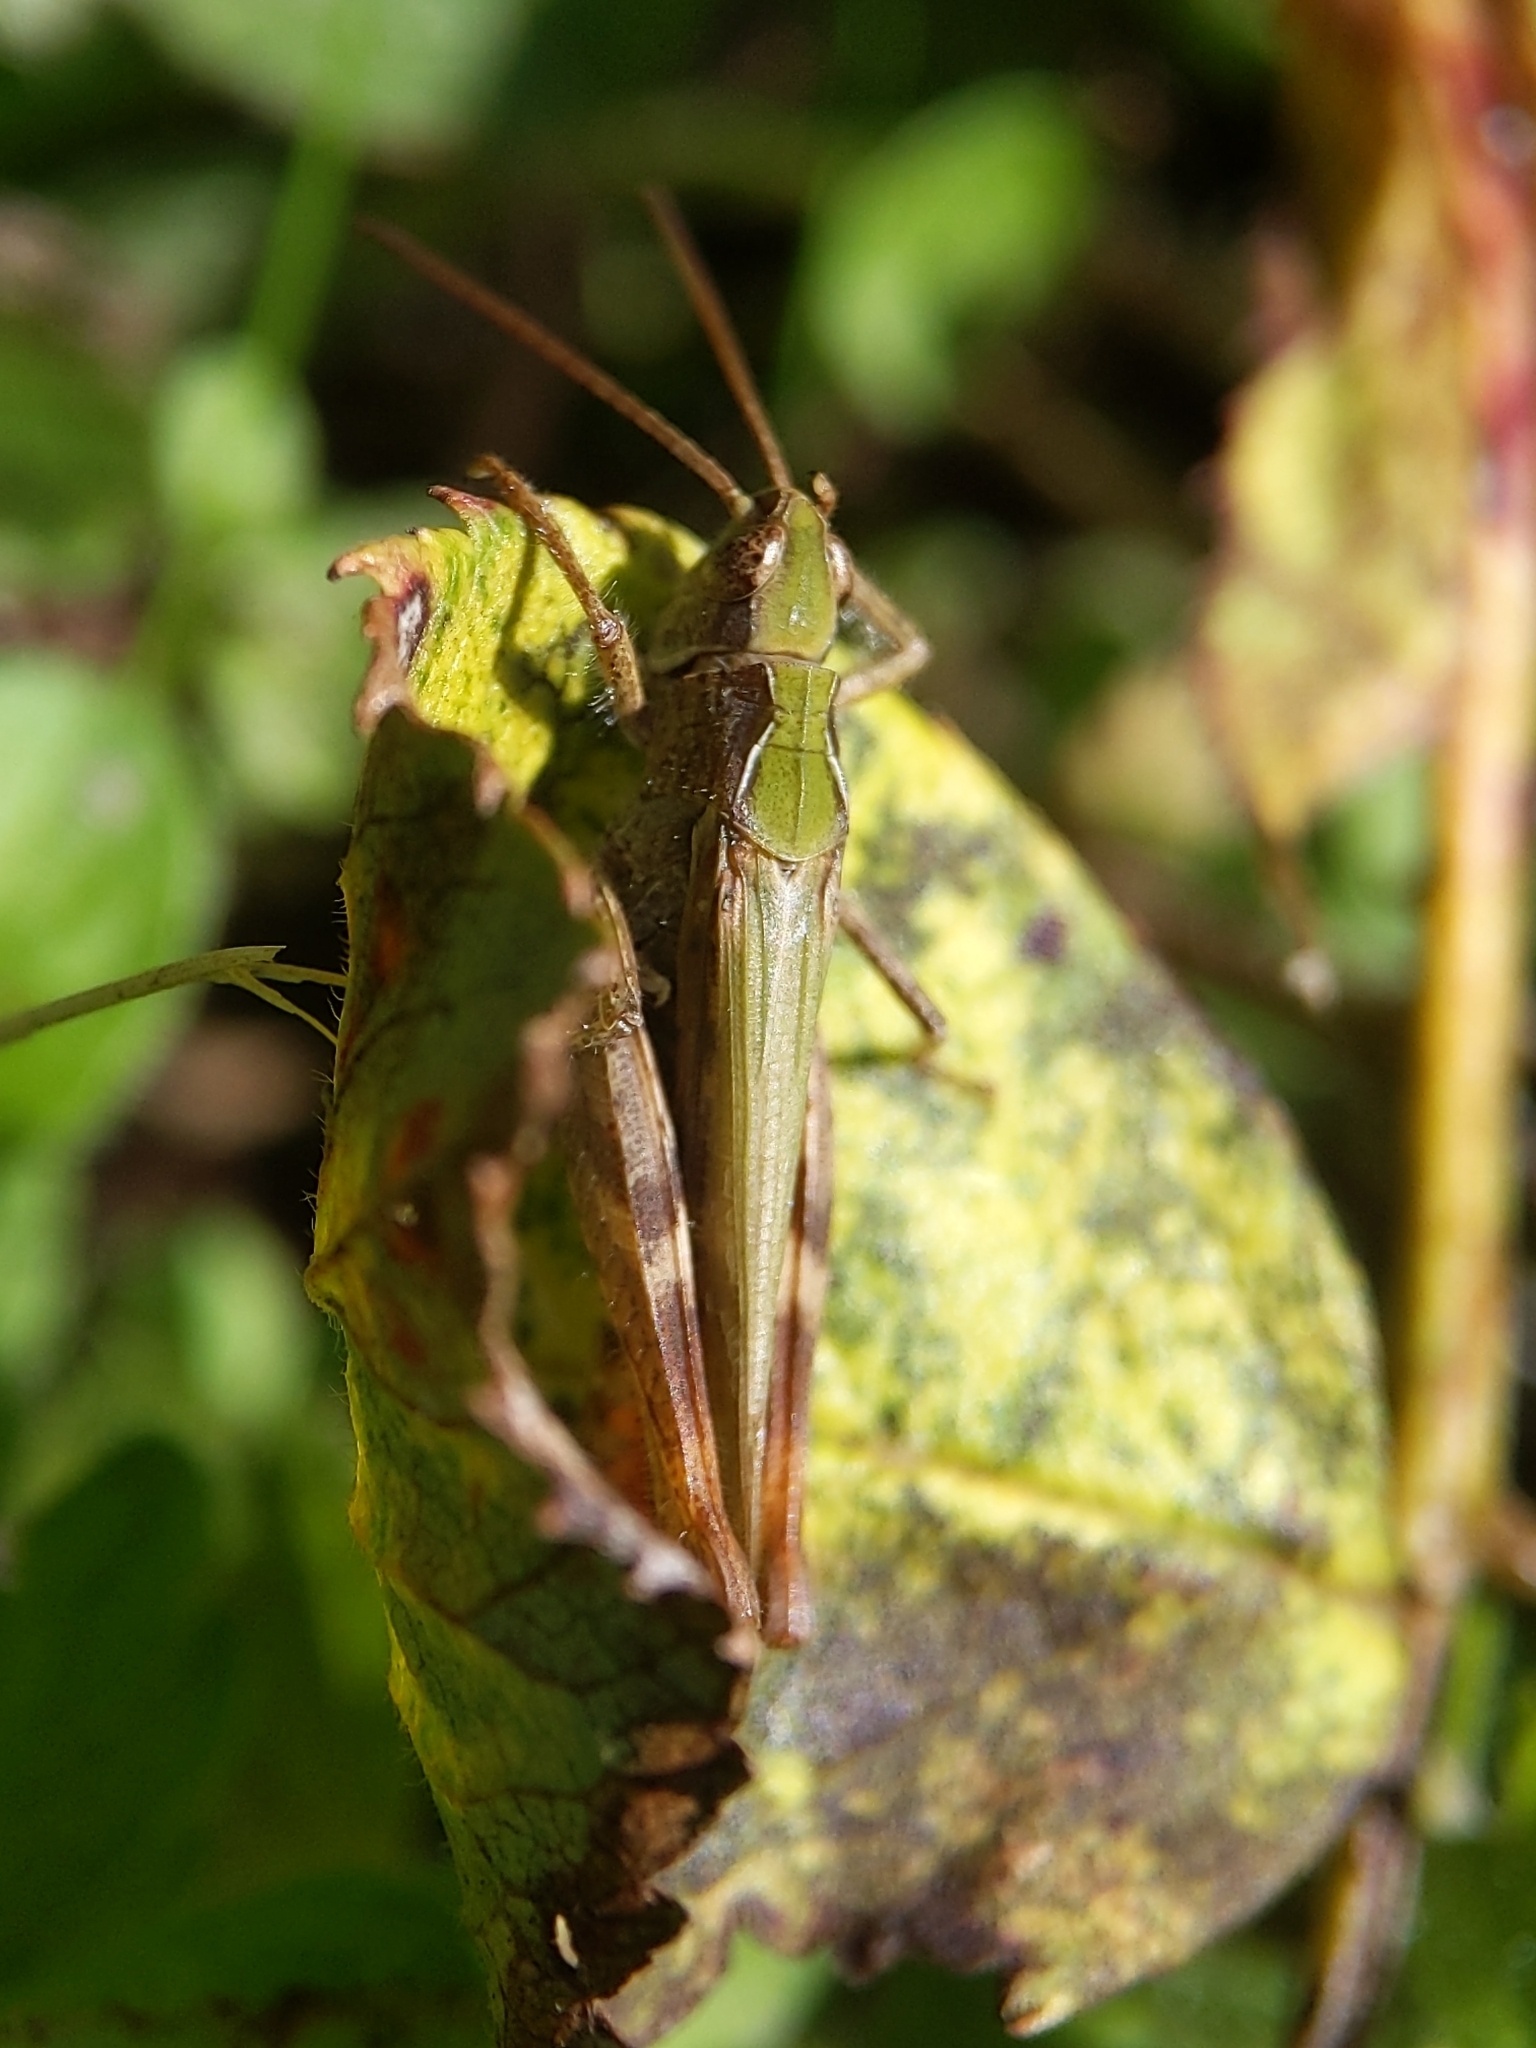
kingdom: Animalia
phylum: Arthropoda
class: Insecta
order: Orthoptera
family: Acrididae
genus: Chorthippus
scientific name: Chorthippus brunneus
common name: Field grasshopper
